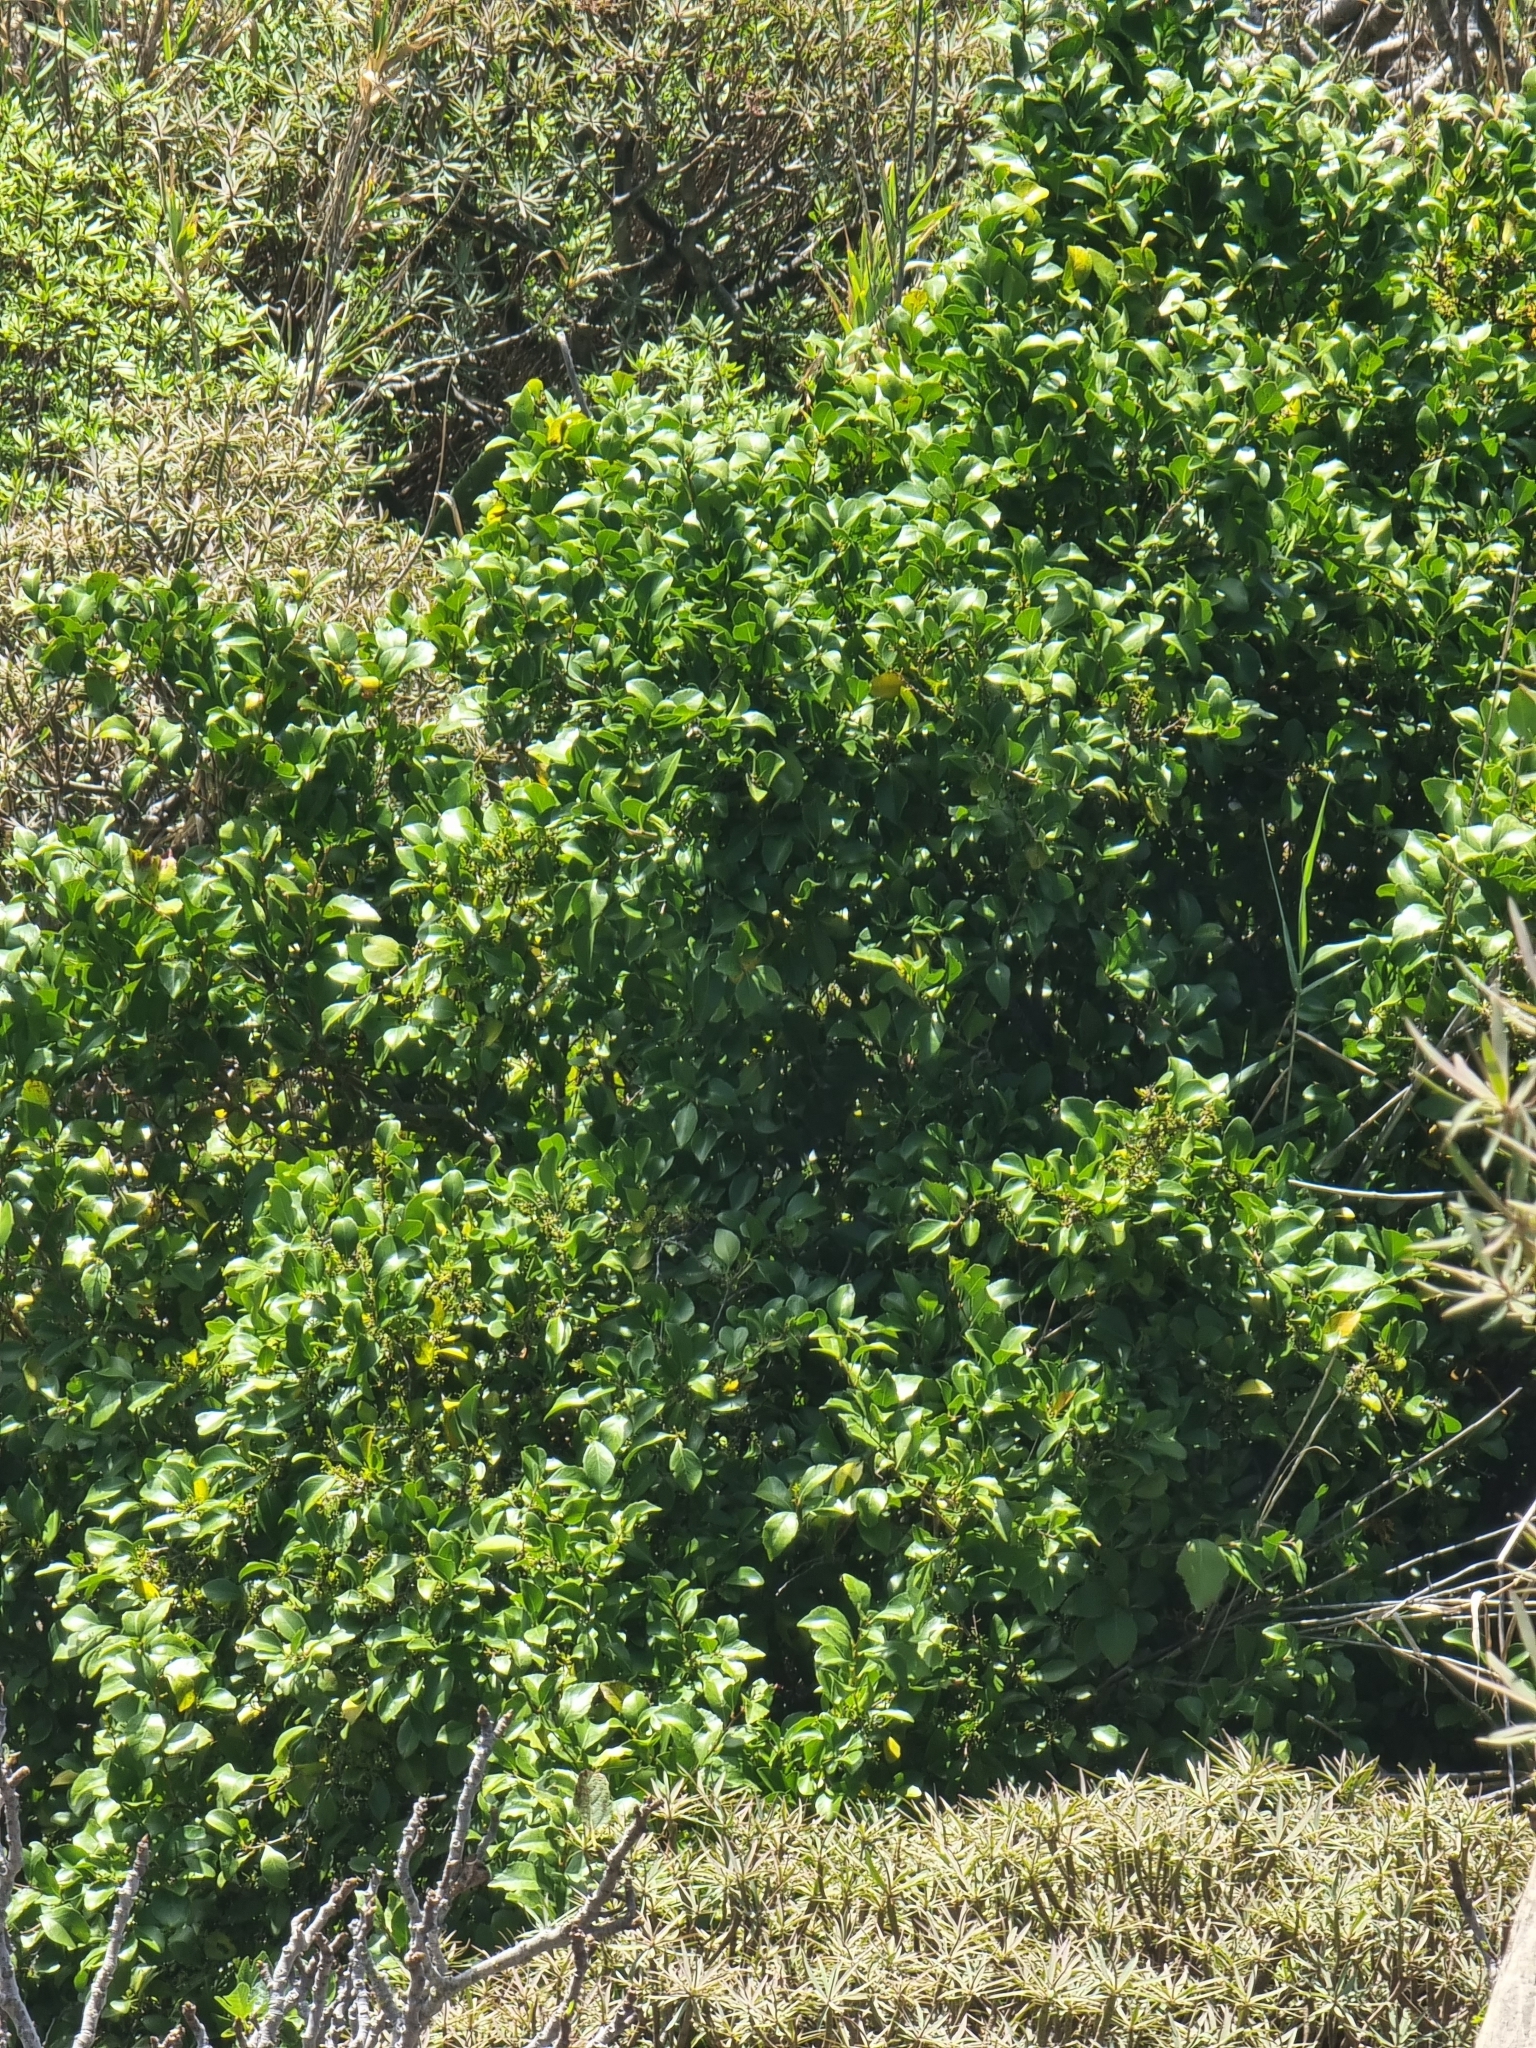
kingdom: Plantae
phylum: Tracheophyta
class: Magnoliopsida
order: Celastrales
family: Celastraceae
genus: Gymnosporia
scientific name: Gymnosporia dryandri
